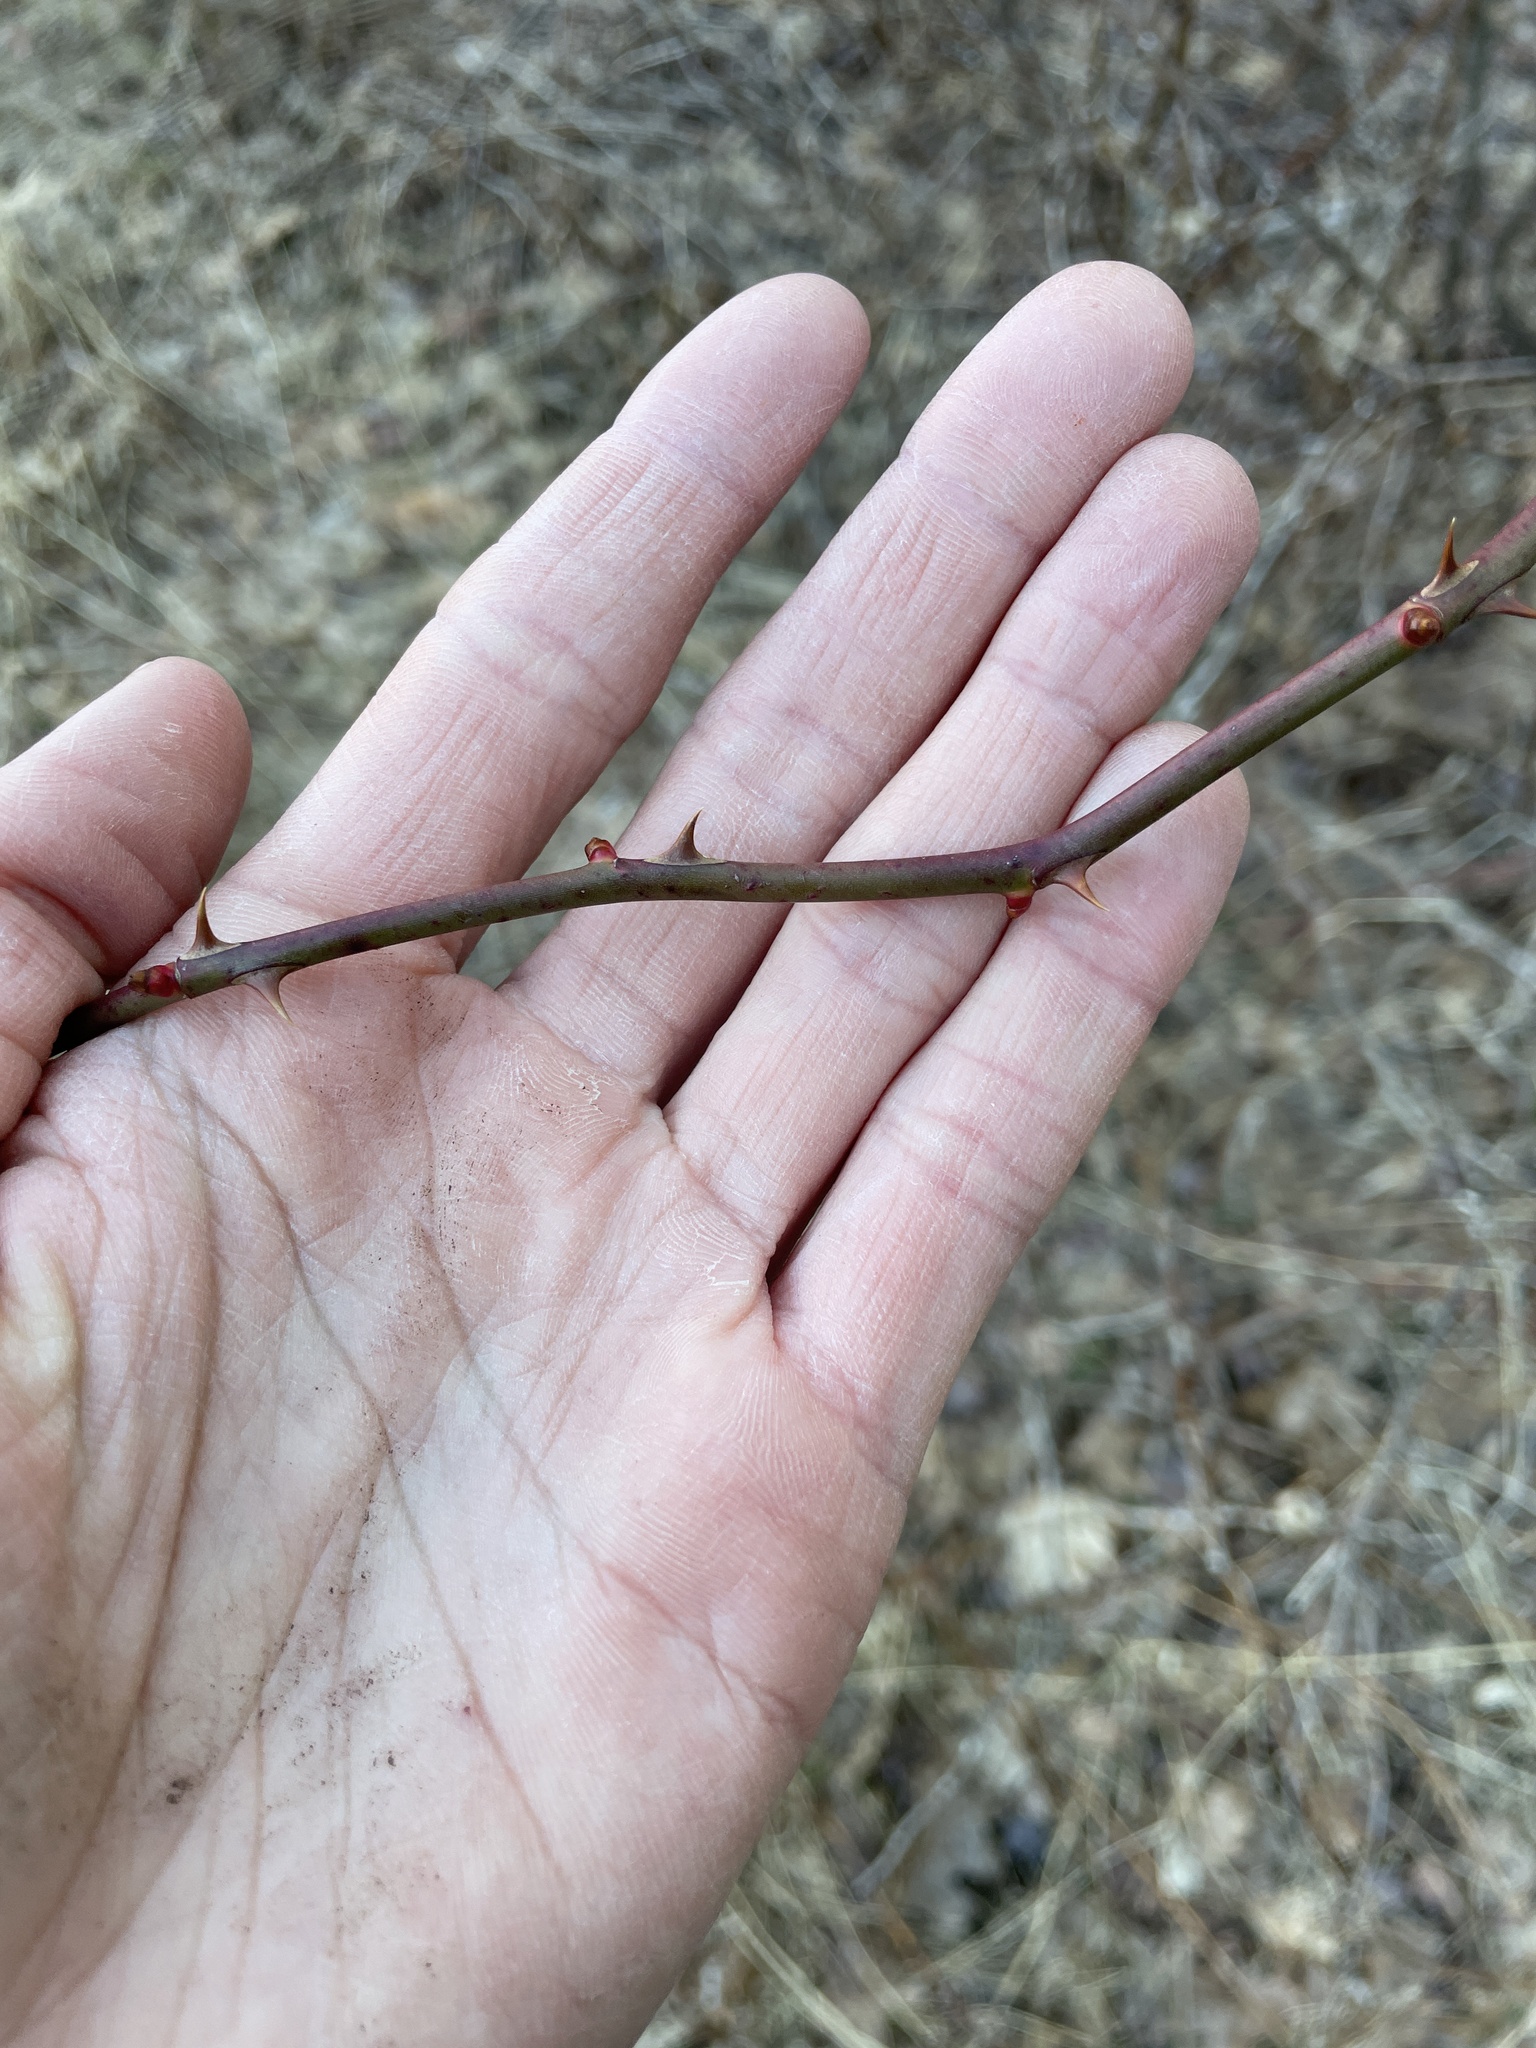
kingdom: Plantae
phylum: Tracheophyta
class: Magnoliopsida
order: Rosales
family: Rosaceae
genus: Rosa
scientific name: Rosa multiflora
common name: Multiflora rose
